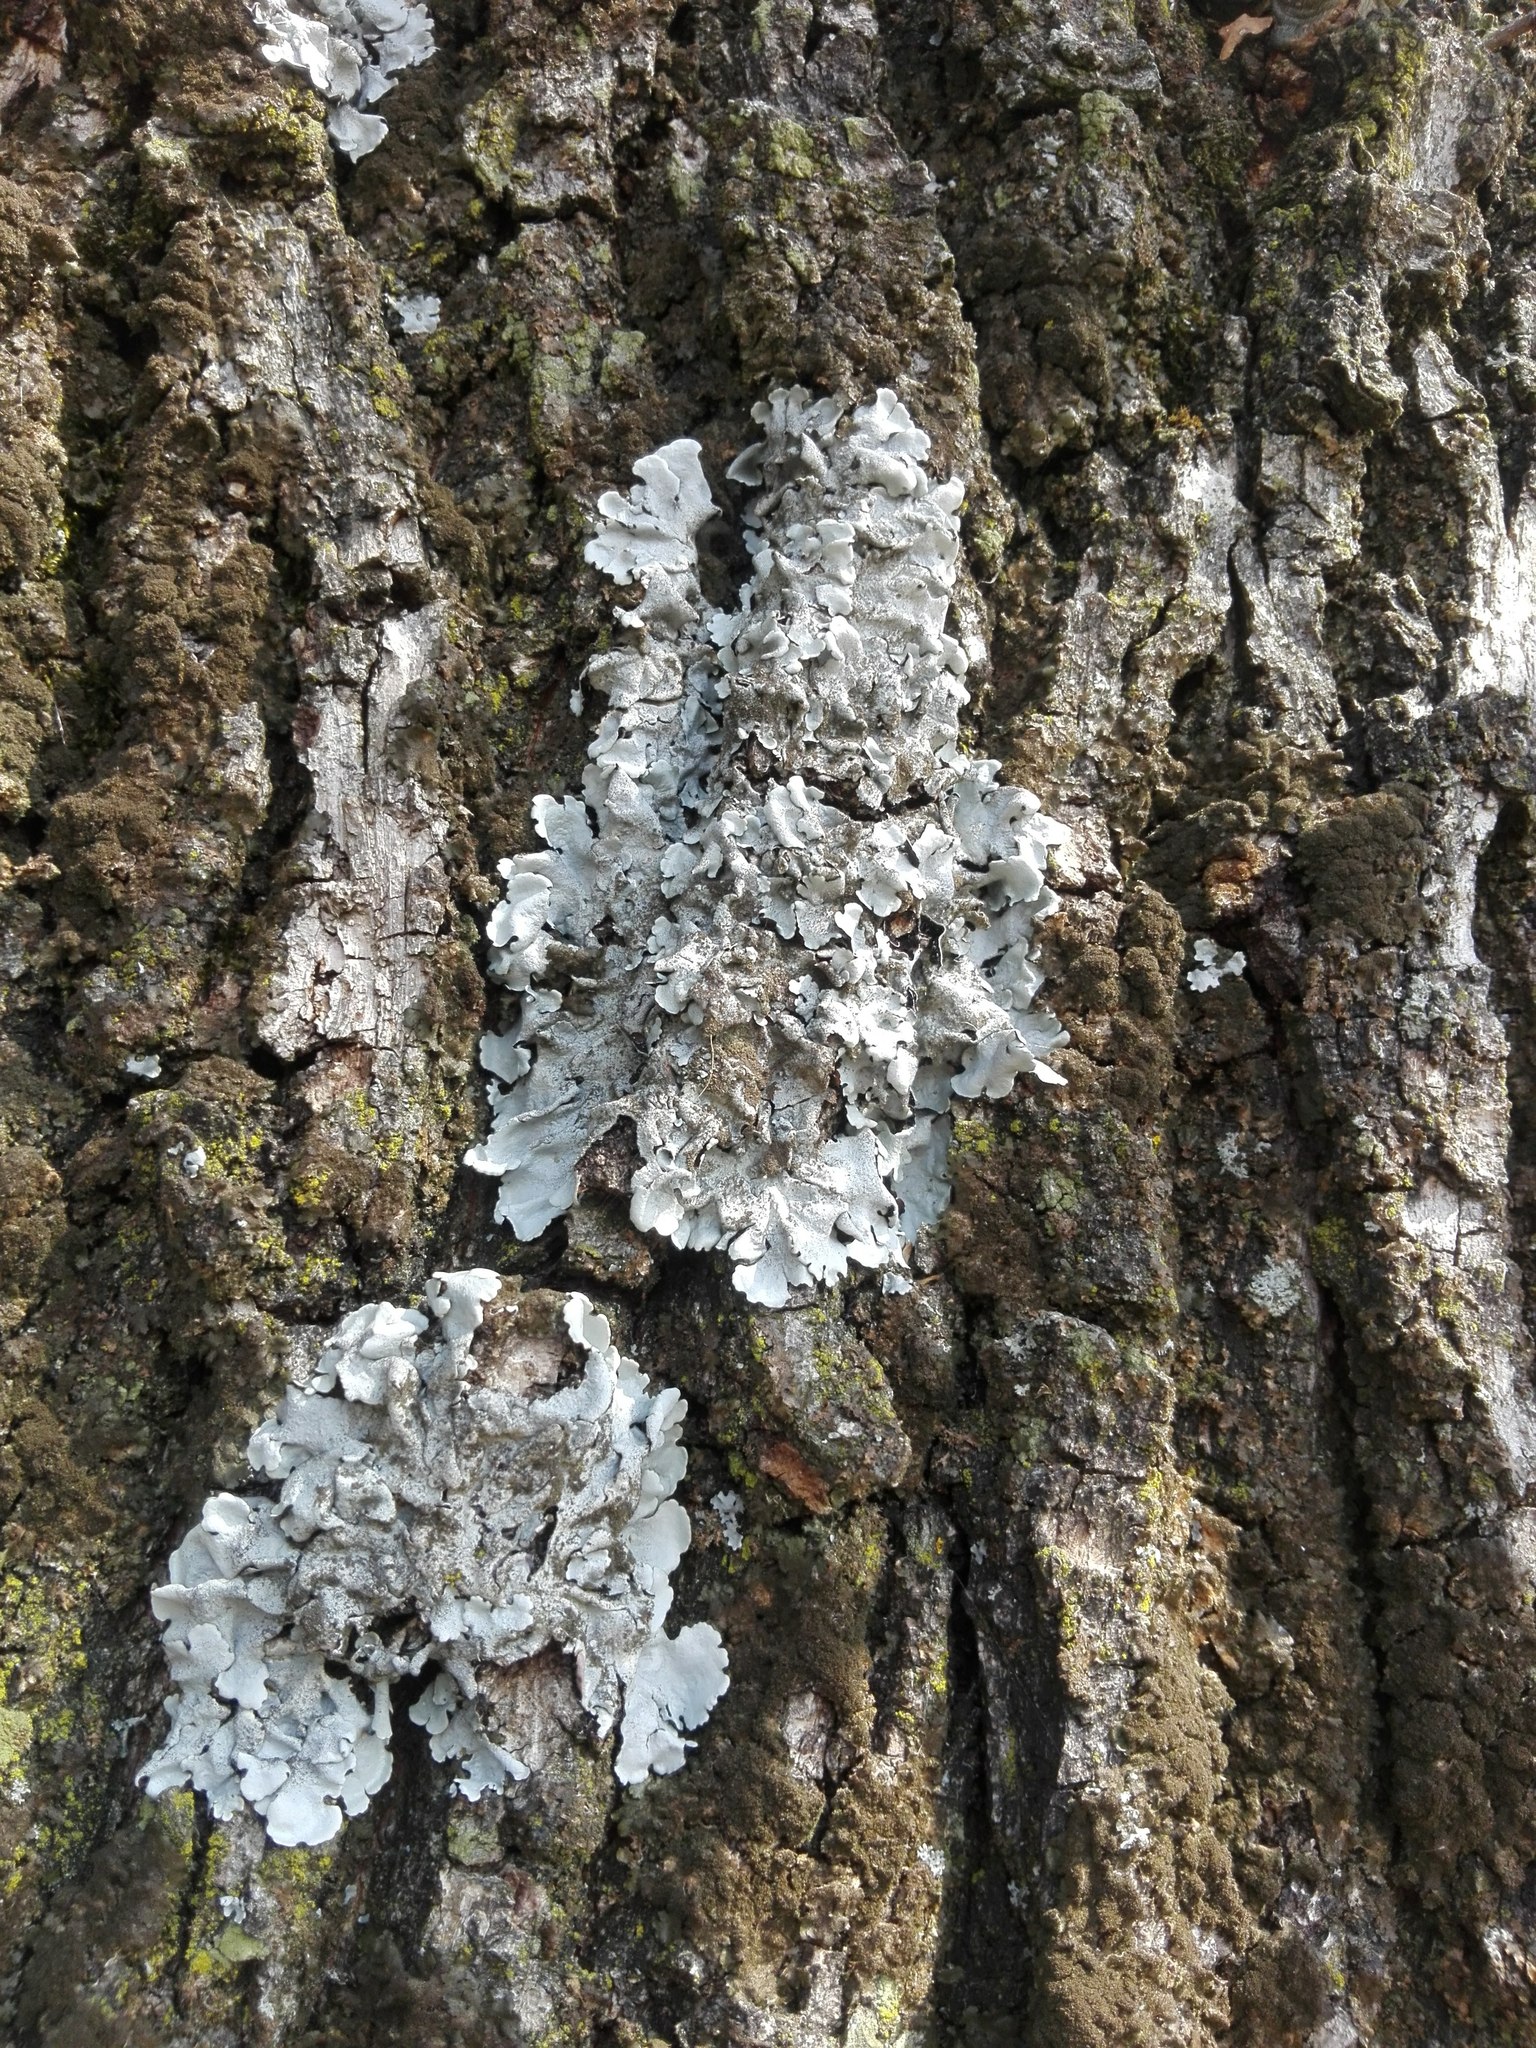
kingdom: Fungi
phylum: Ascomycota
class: Lecanoromycetes
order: Lecanorales
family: Parmeliaceae
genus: Parmelina
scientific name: Parmelina tiliacea
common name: Linden shield lichen
